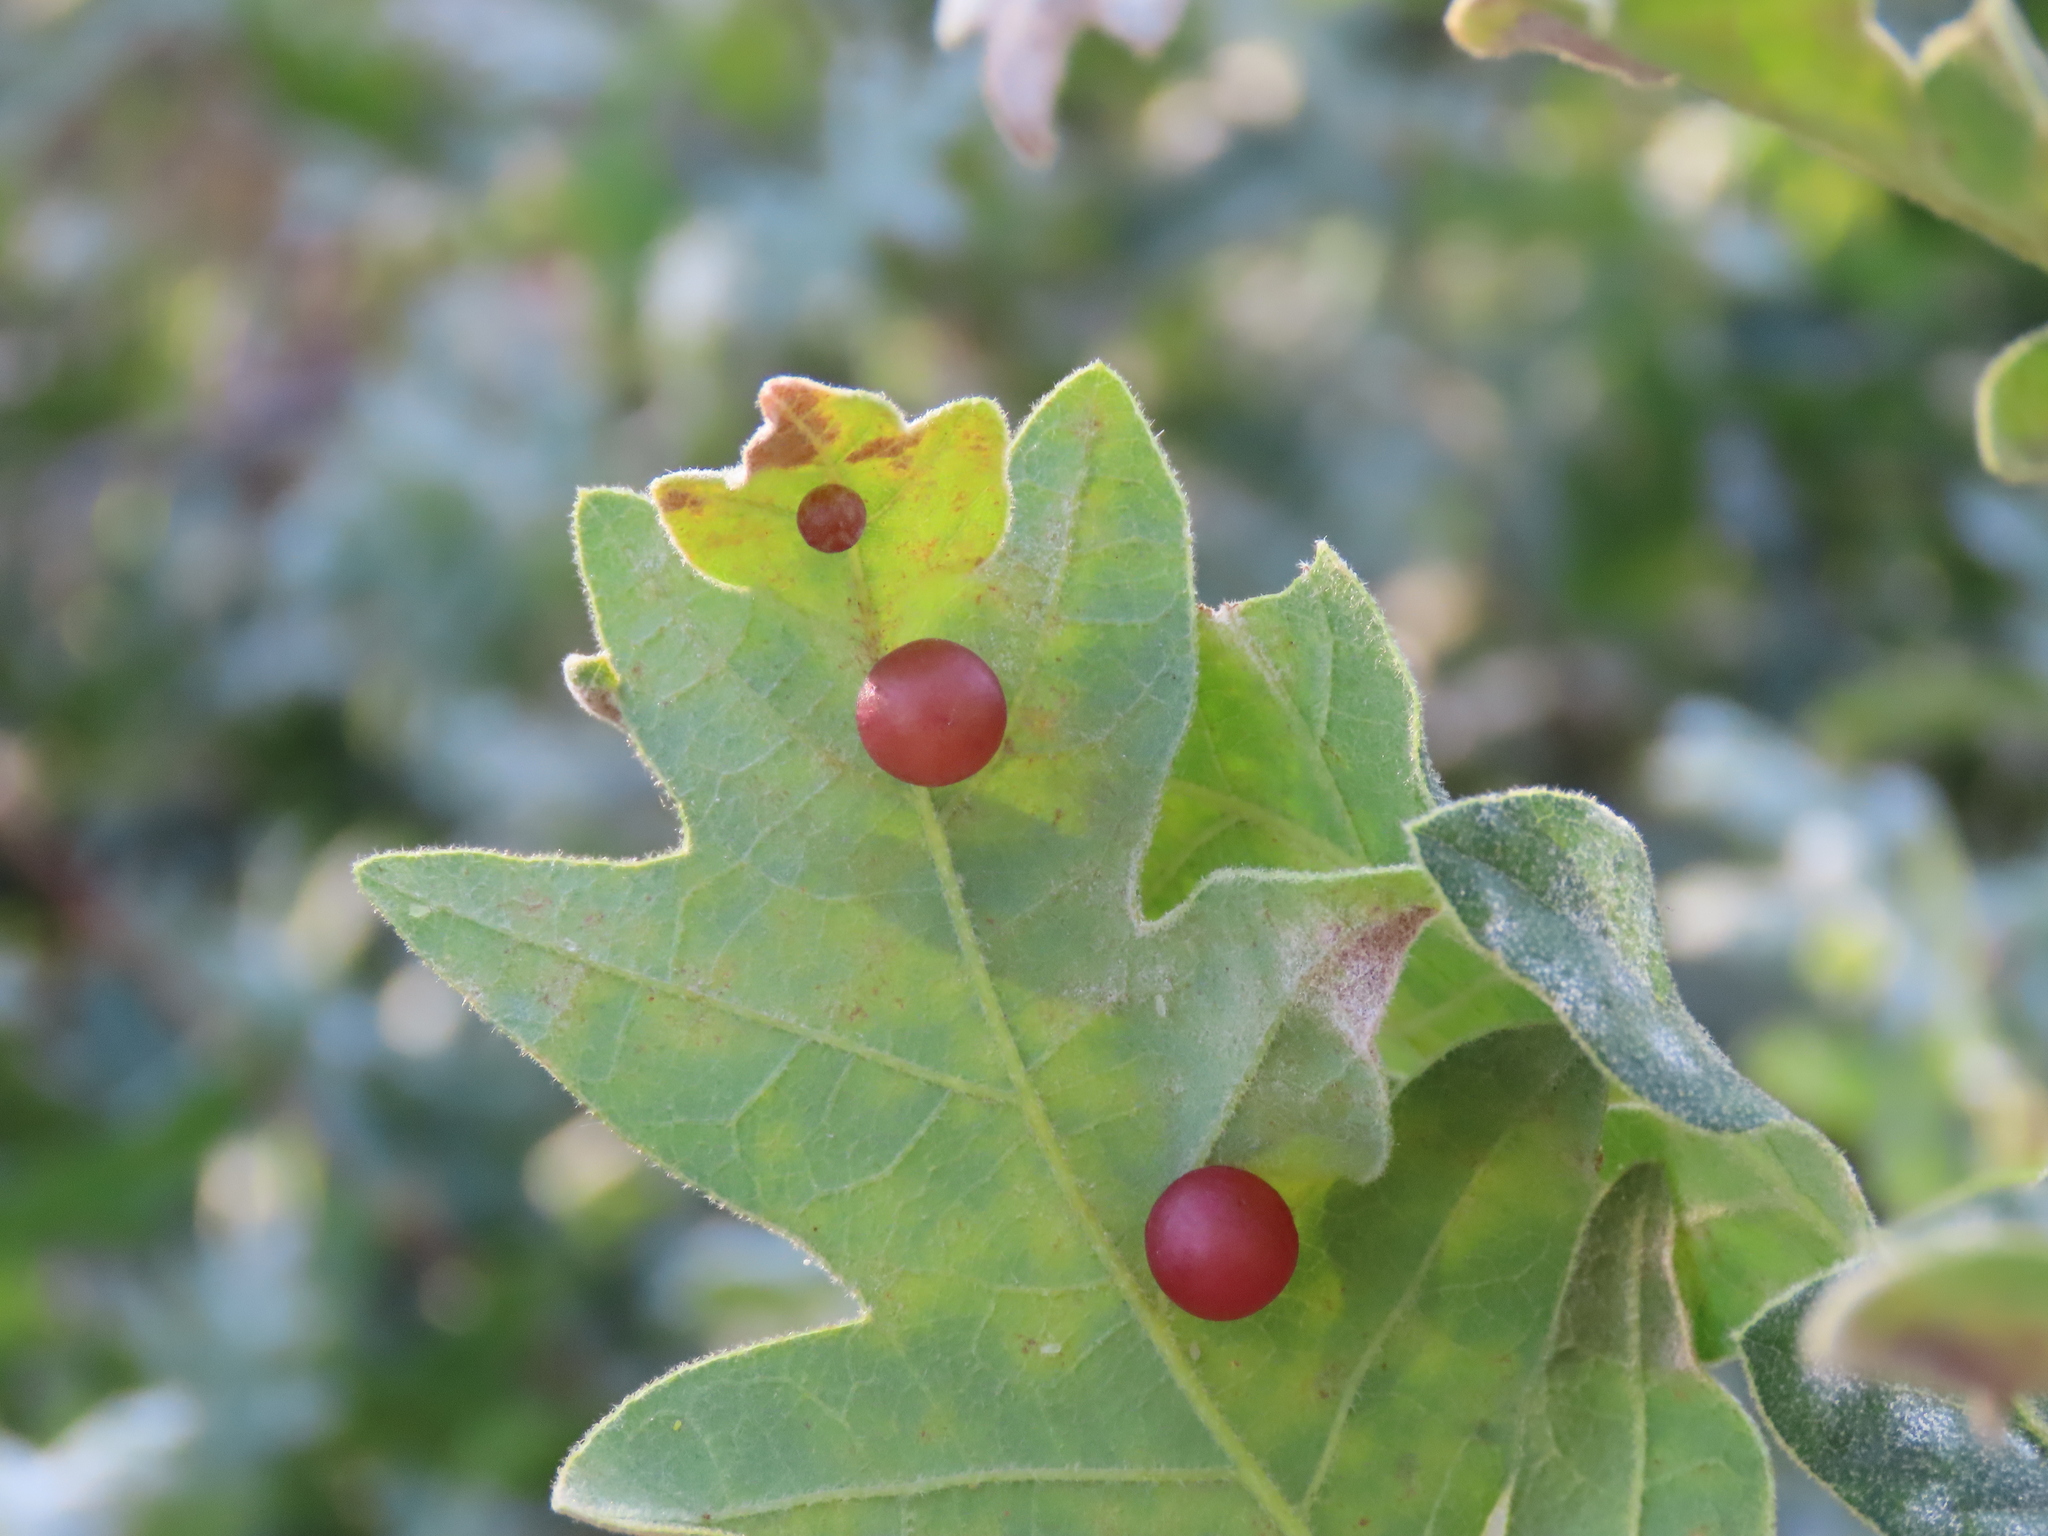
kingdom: Animalia
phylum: Arthropoda
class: Insecta
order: Hymenoptera
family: Cynipidae
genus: Cynips
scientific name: Cynips divisa
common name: Red currant gall
